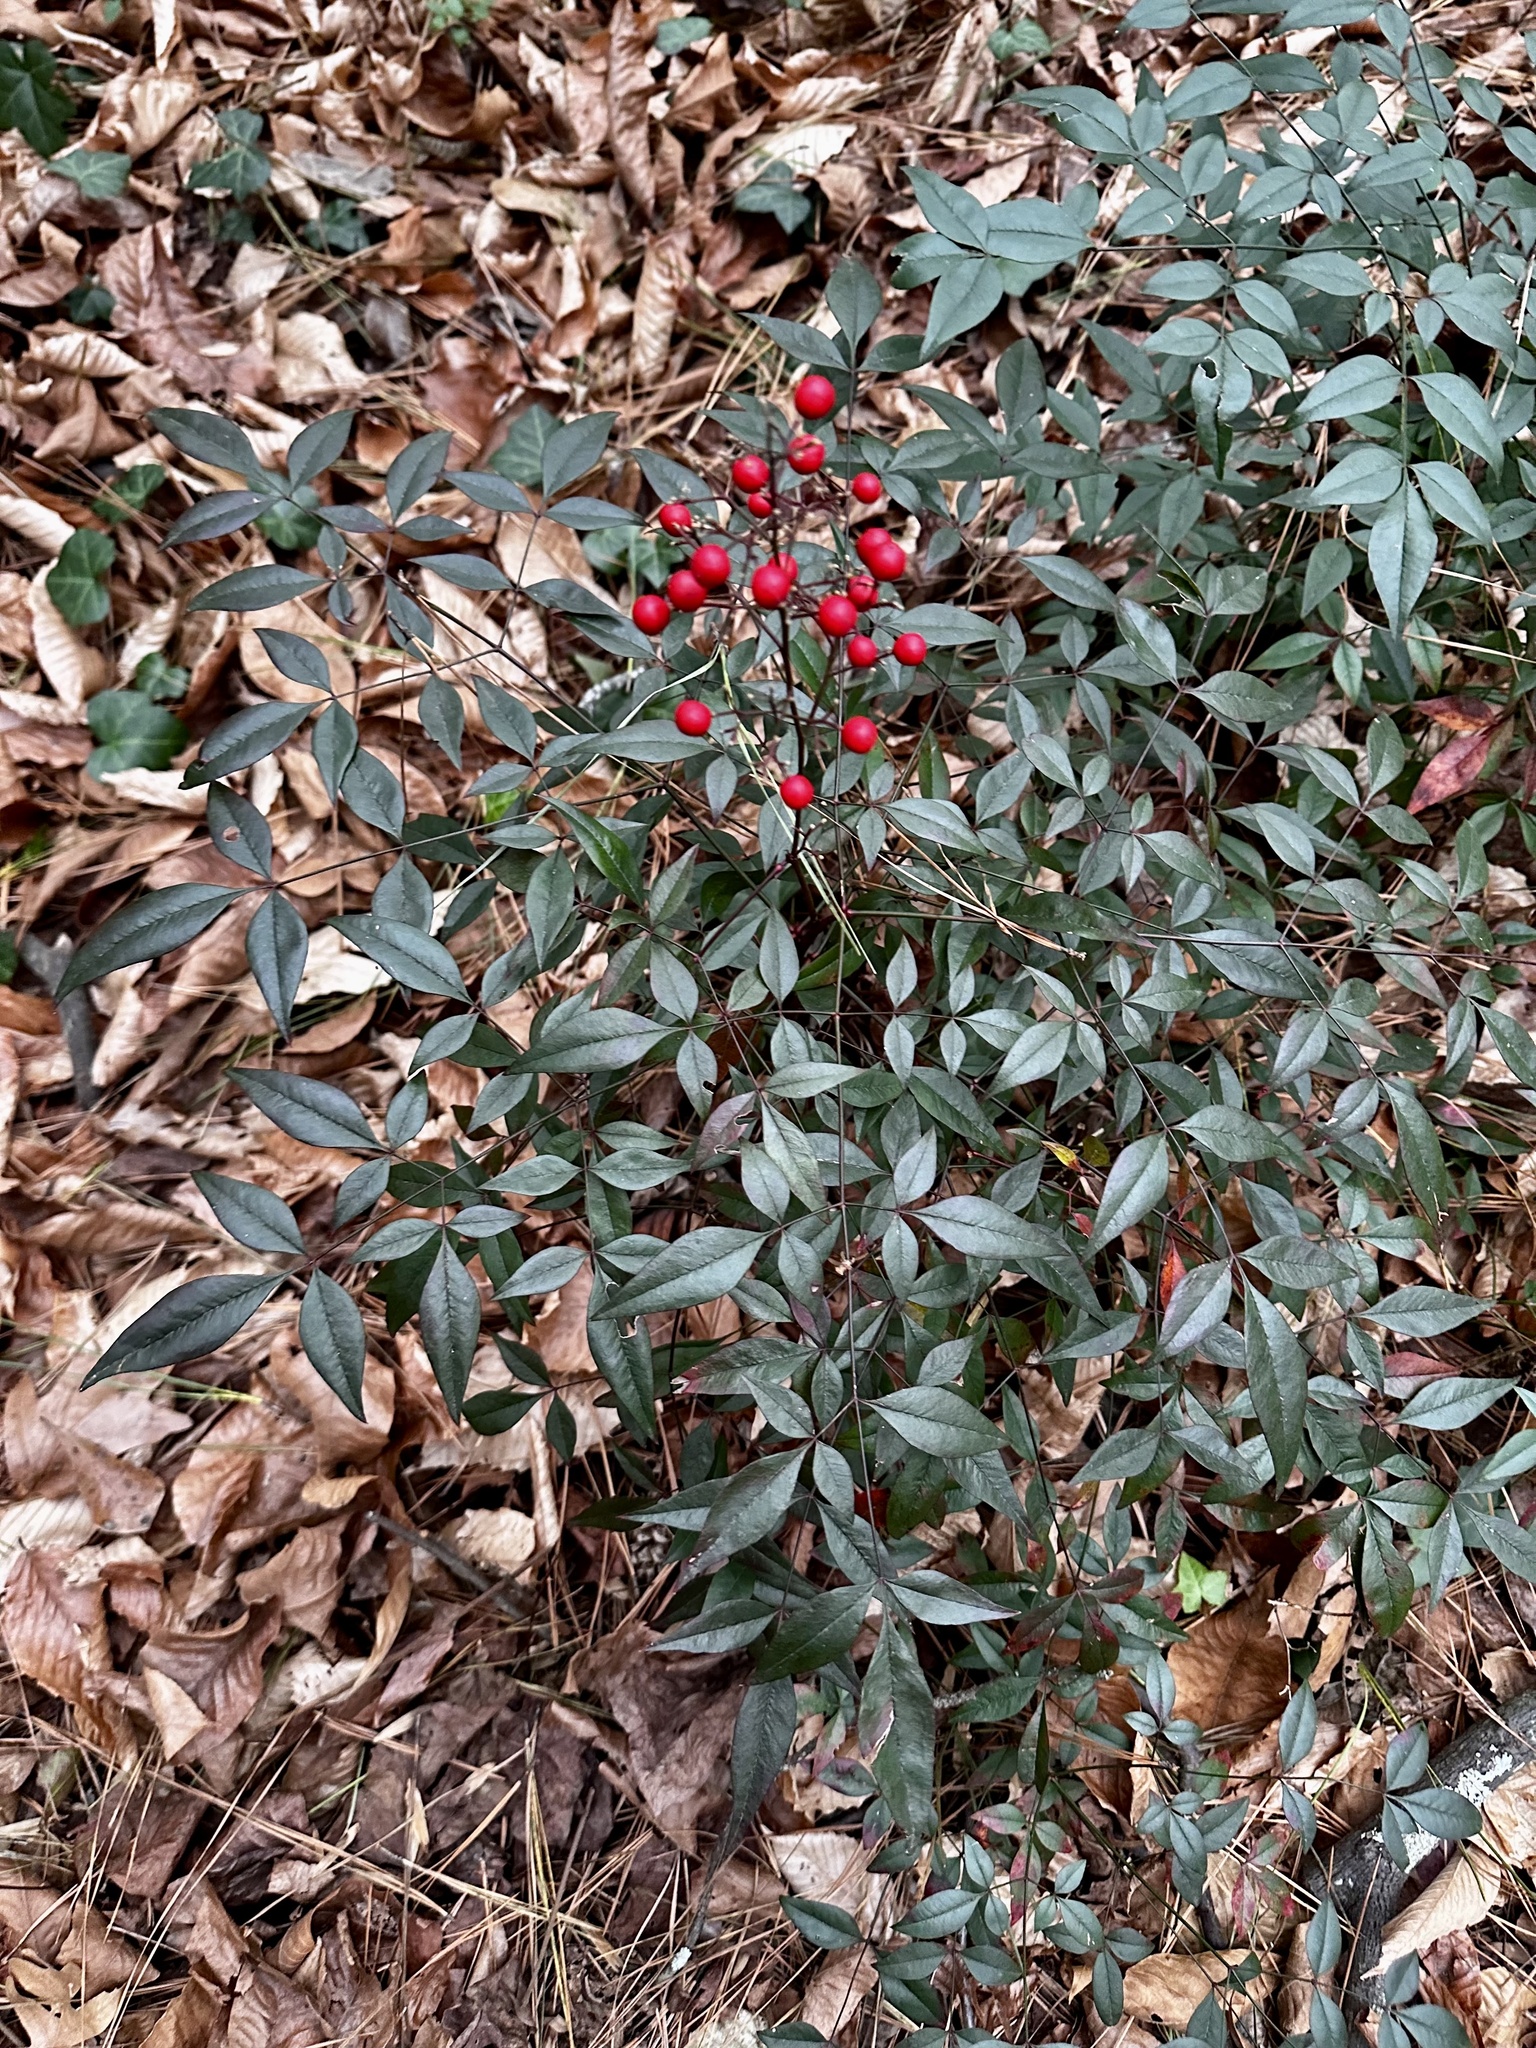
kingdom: Plantae
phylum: Tracheophyta
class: Magnoliopsida
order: Ranunculales
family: Berberidaceae
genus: Nandina
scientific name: Nandina domestica
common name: Sacred bamboo
